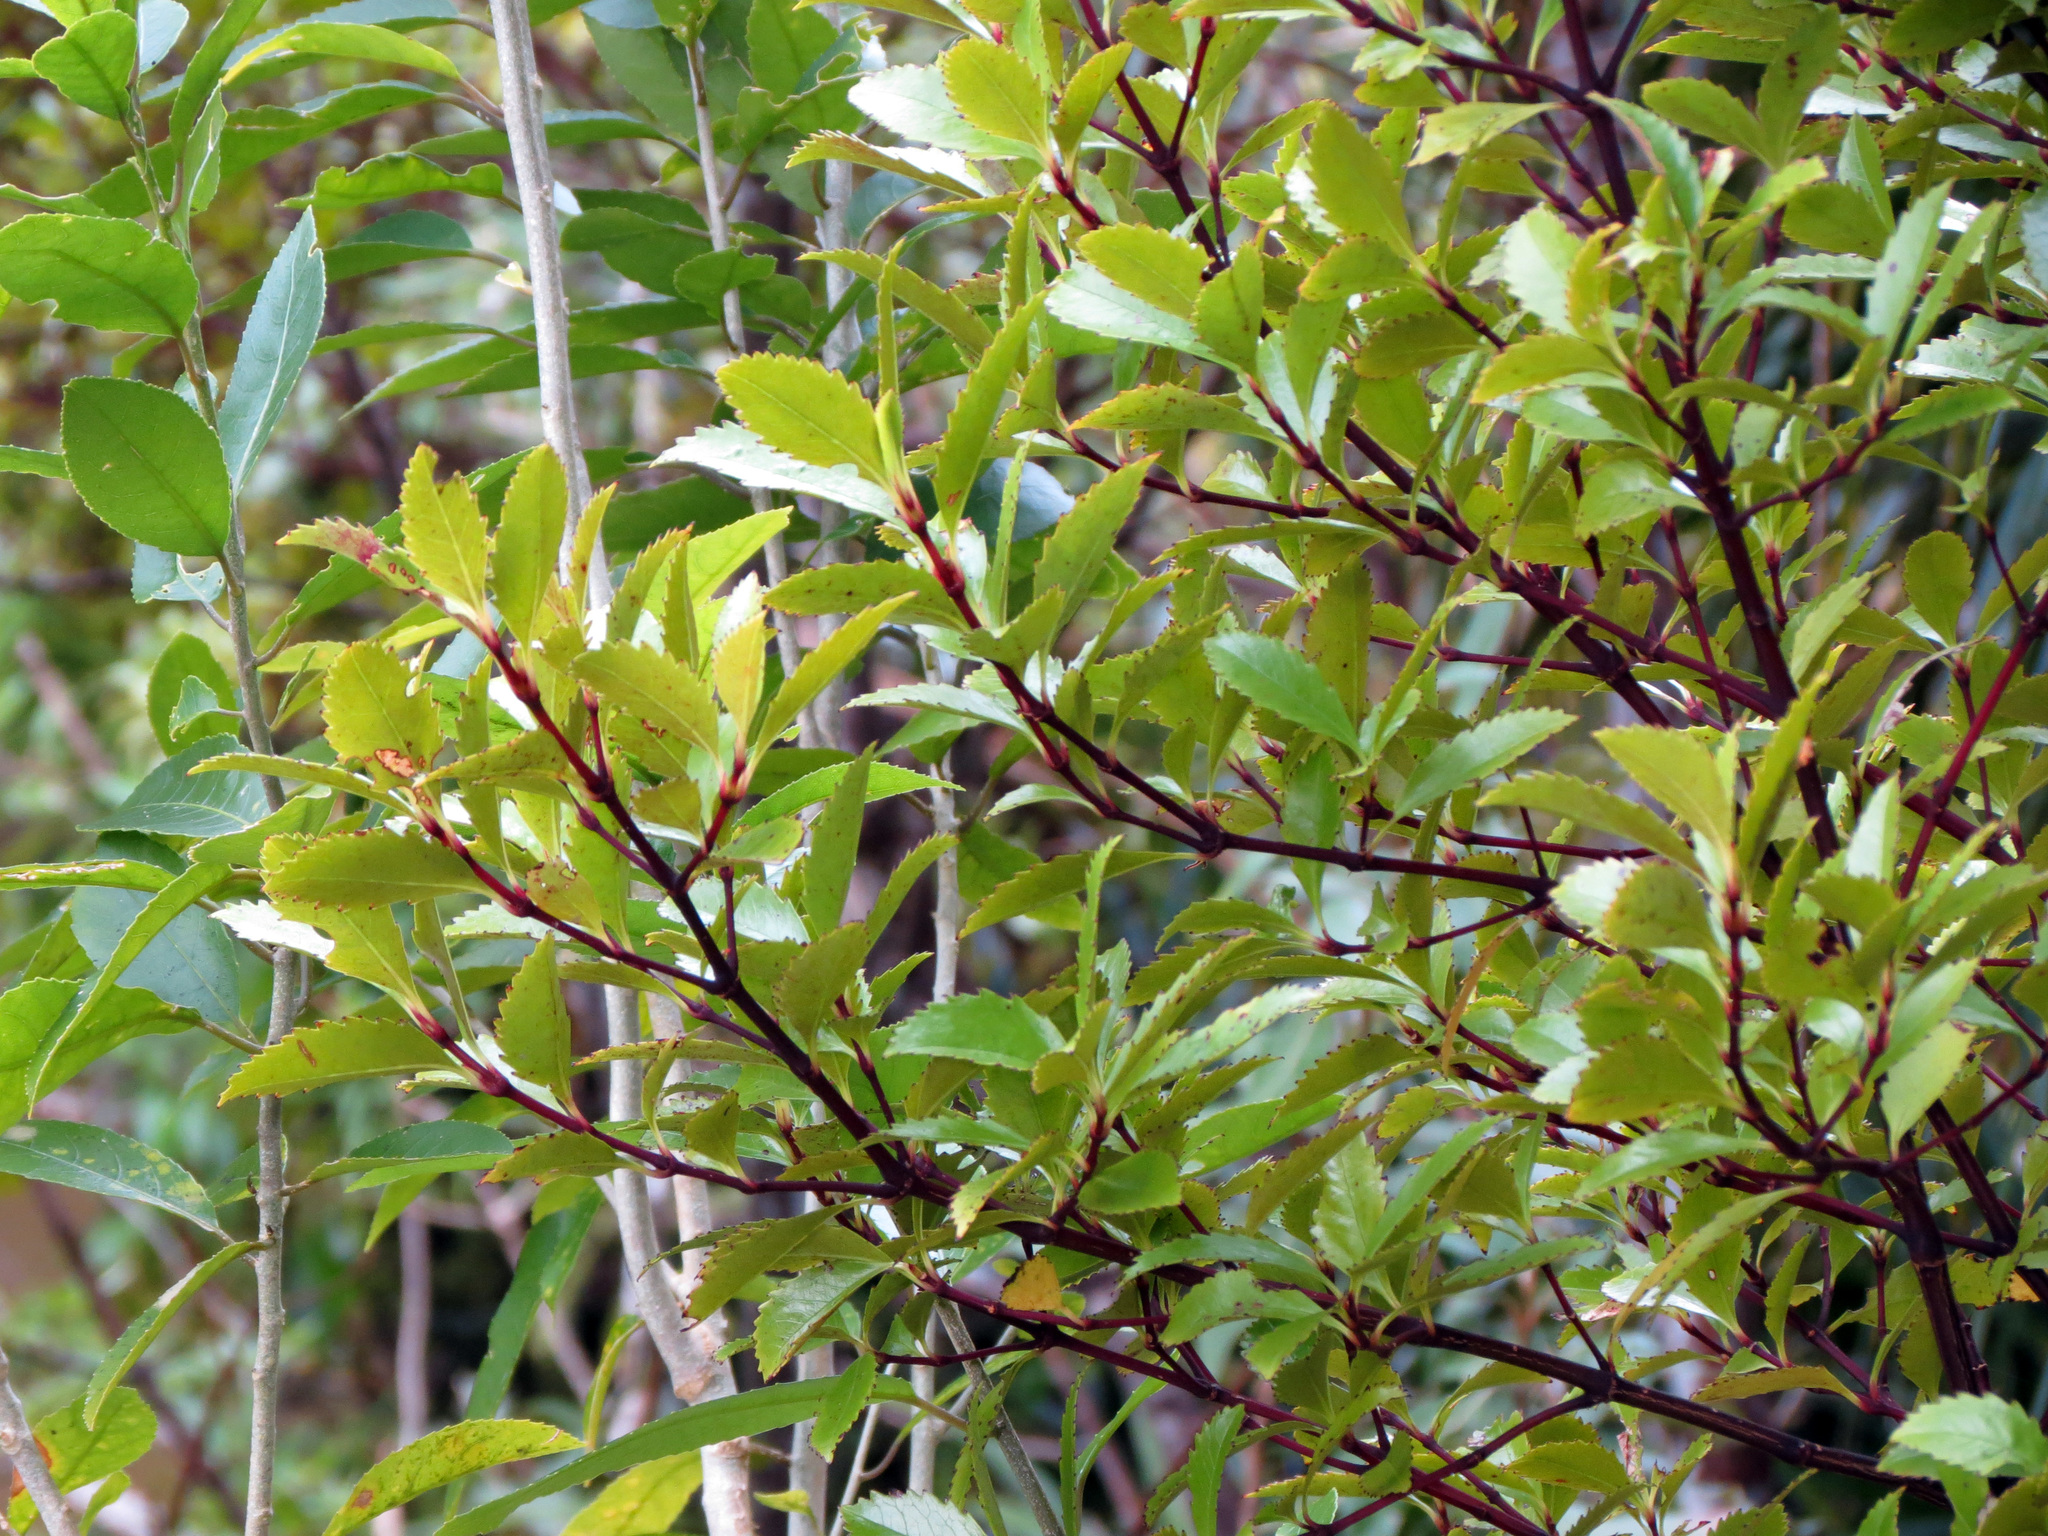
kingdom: Plantae
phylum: Tracheophyta
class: Magnoliopsida
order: Chloranthales
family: Chloranthaceae
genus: Ascarina
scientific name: Ascarina lucida
